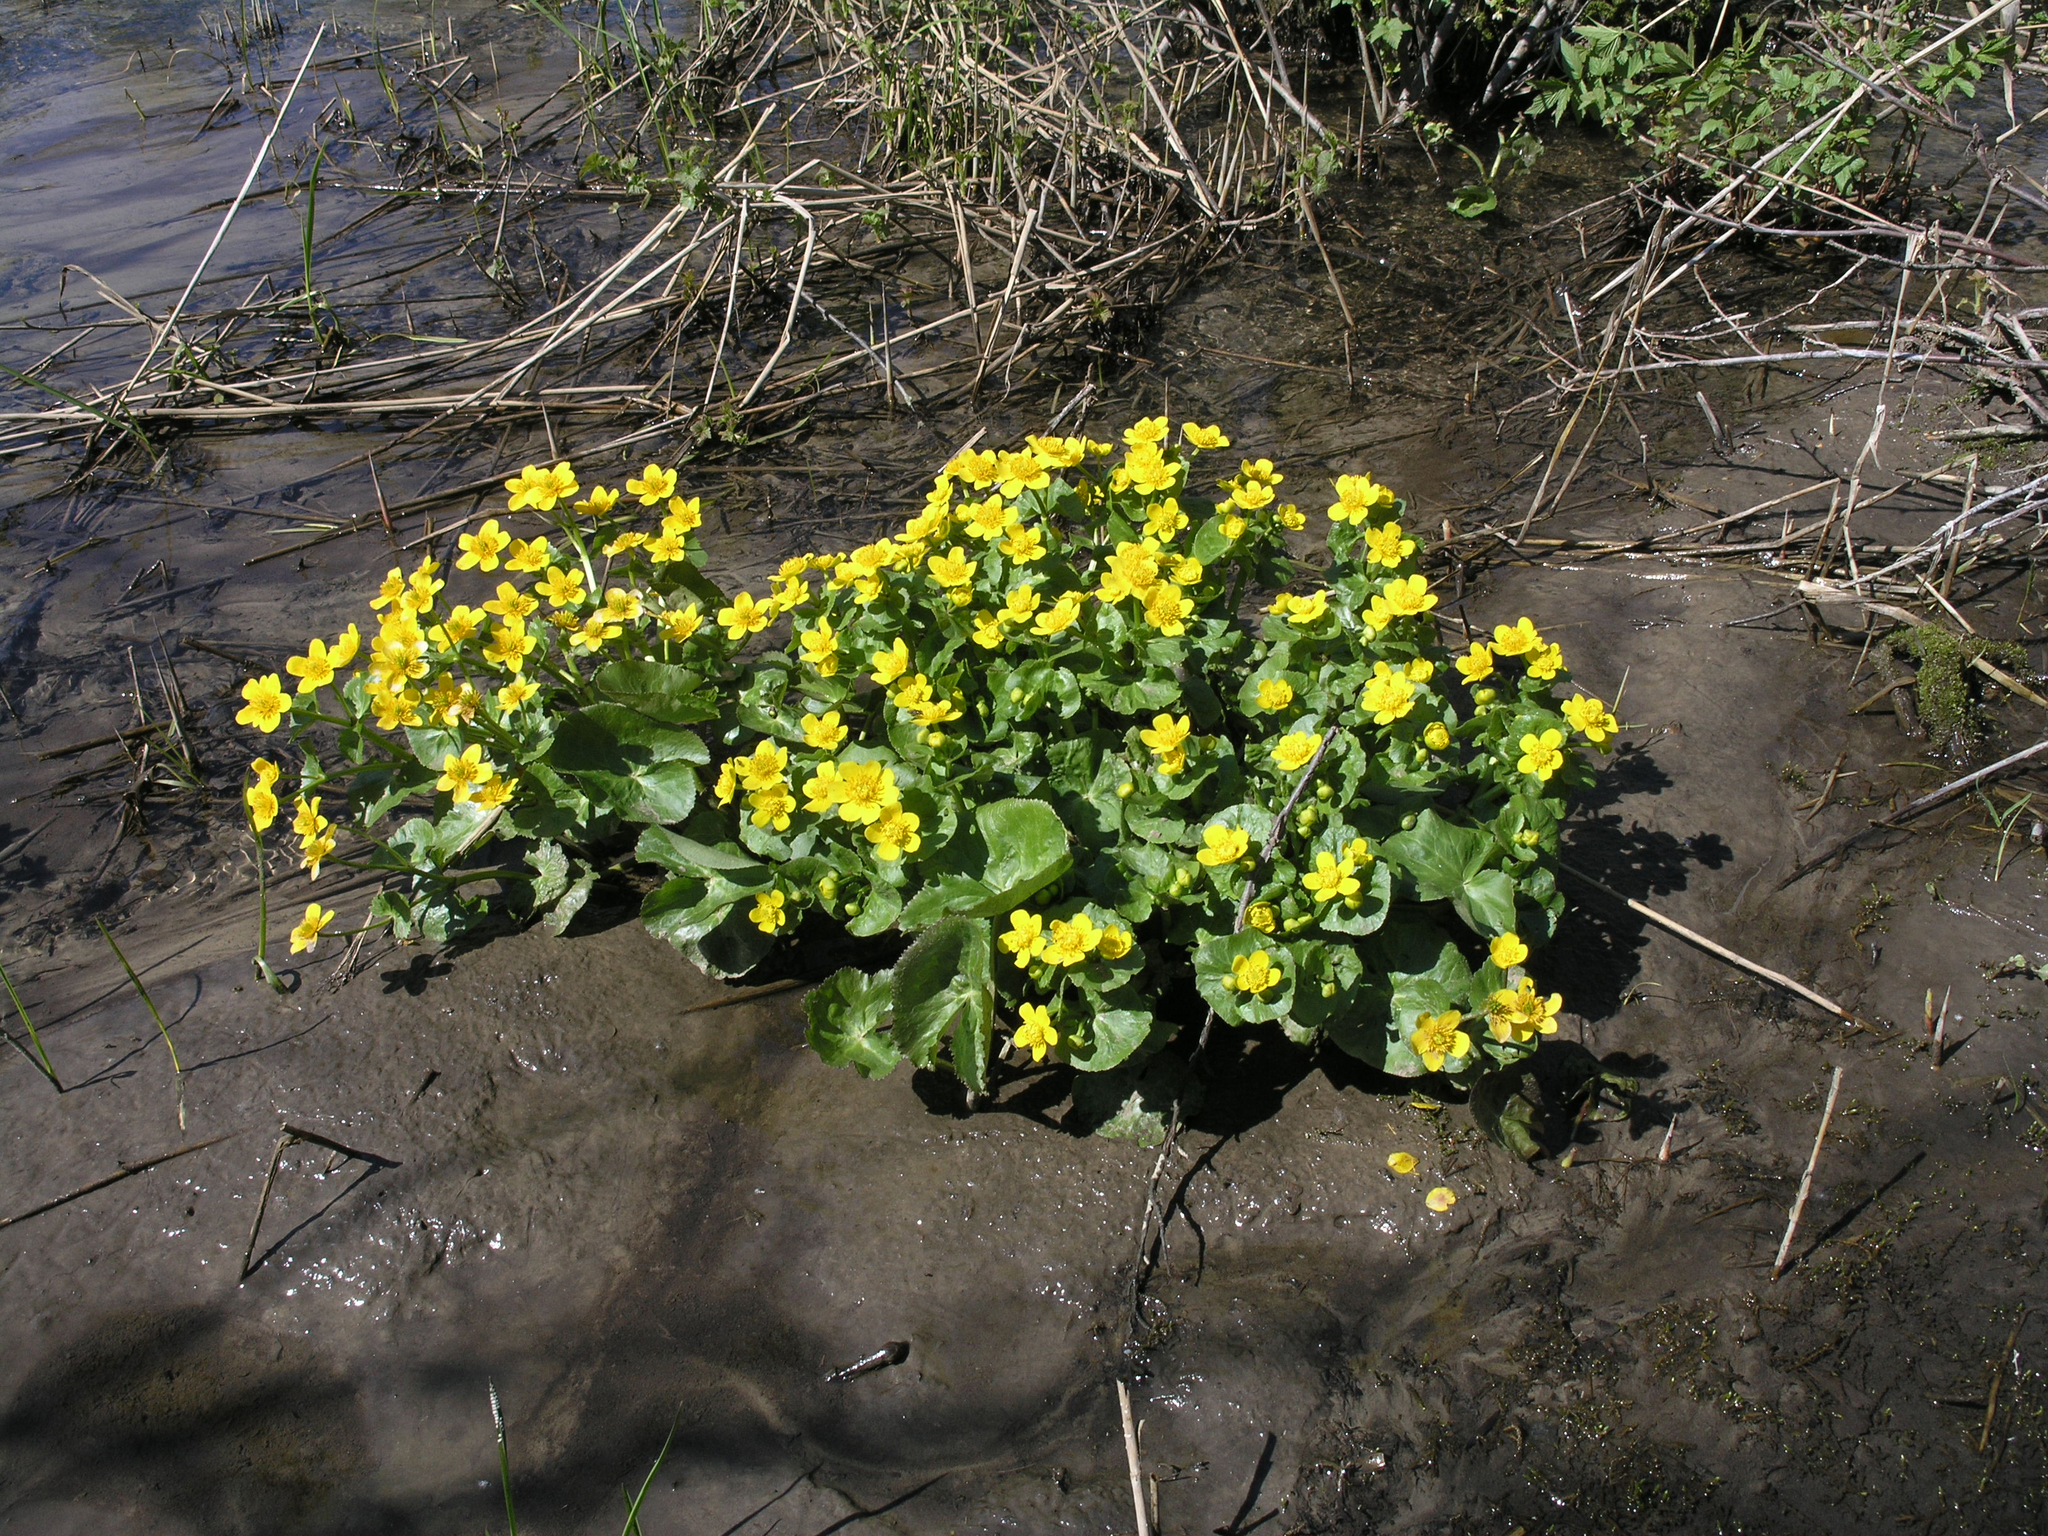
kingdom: Plantae
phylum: Tracheophyta
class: Magnoliopsida
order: Ranunculales
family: Ranunculaceae
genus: Caltha
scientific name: Caltha palustris
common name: Marsh marigold
